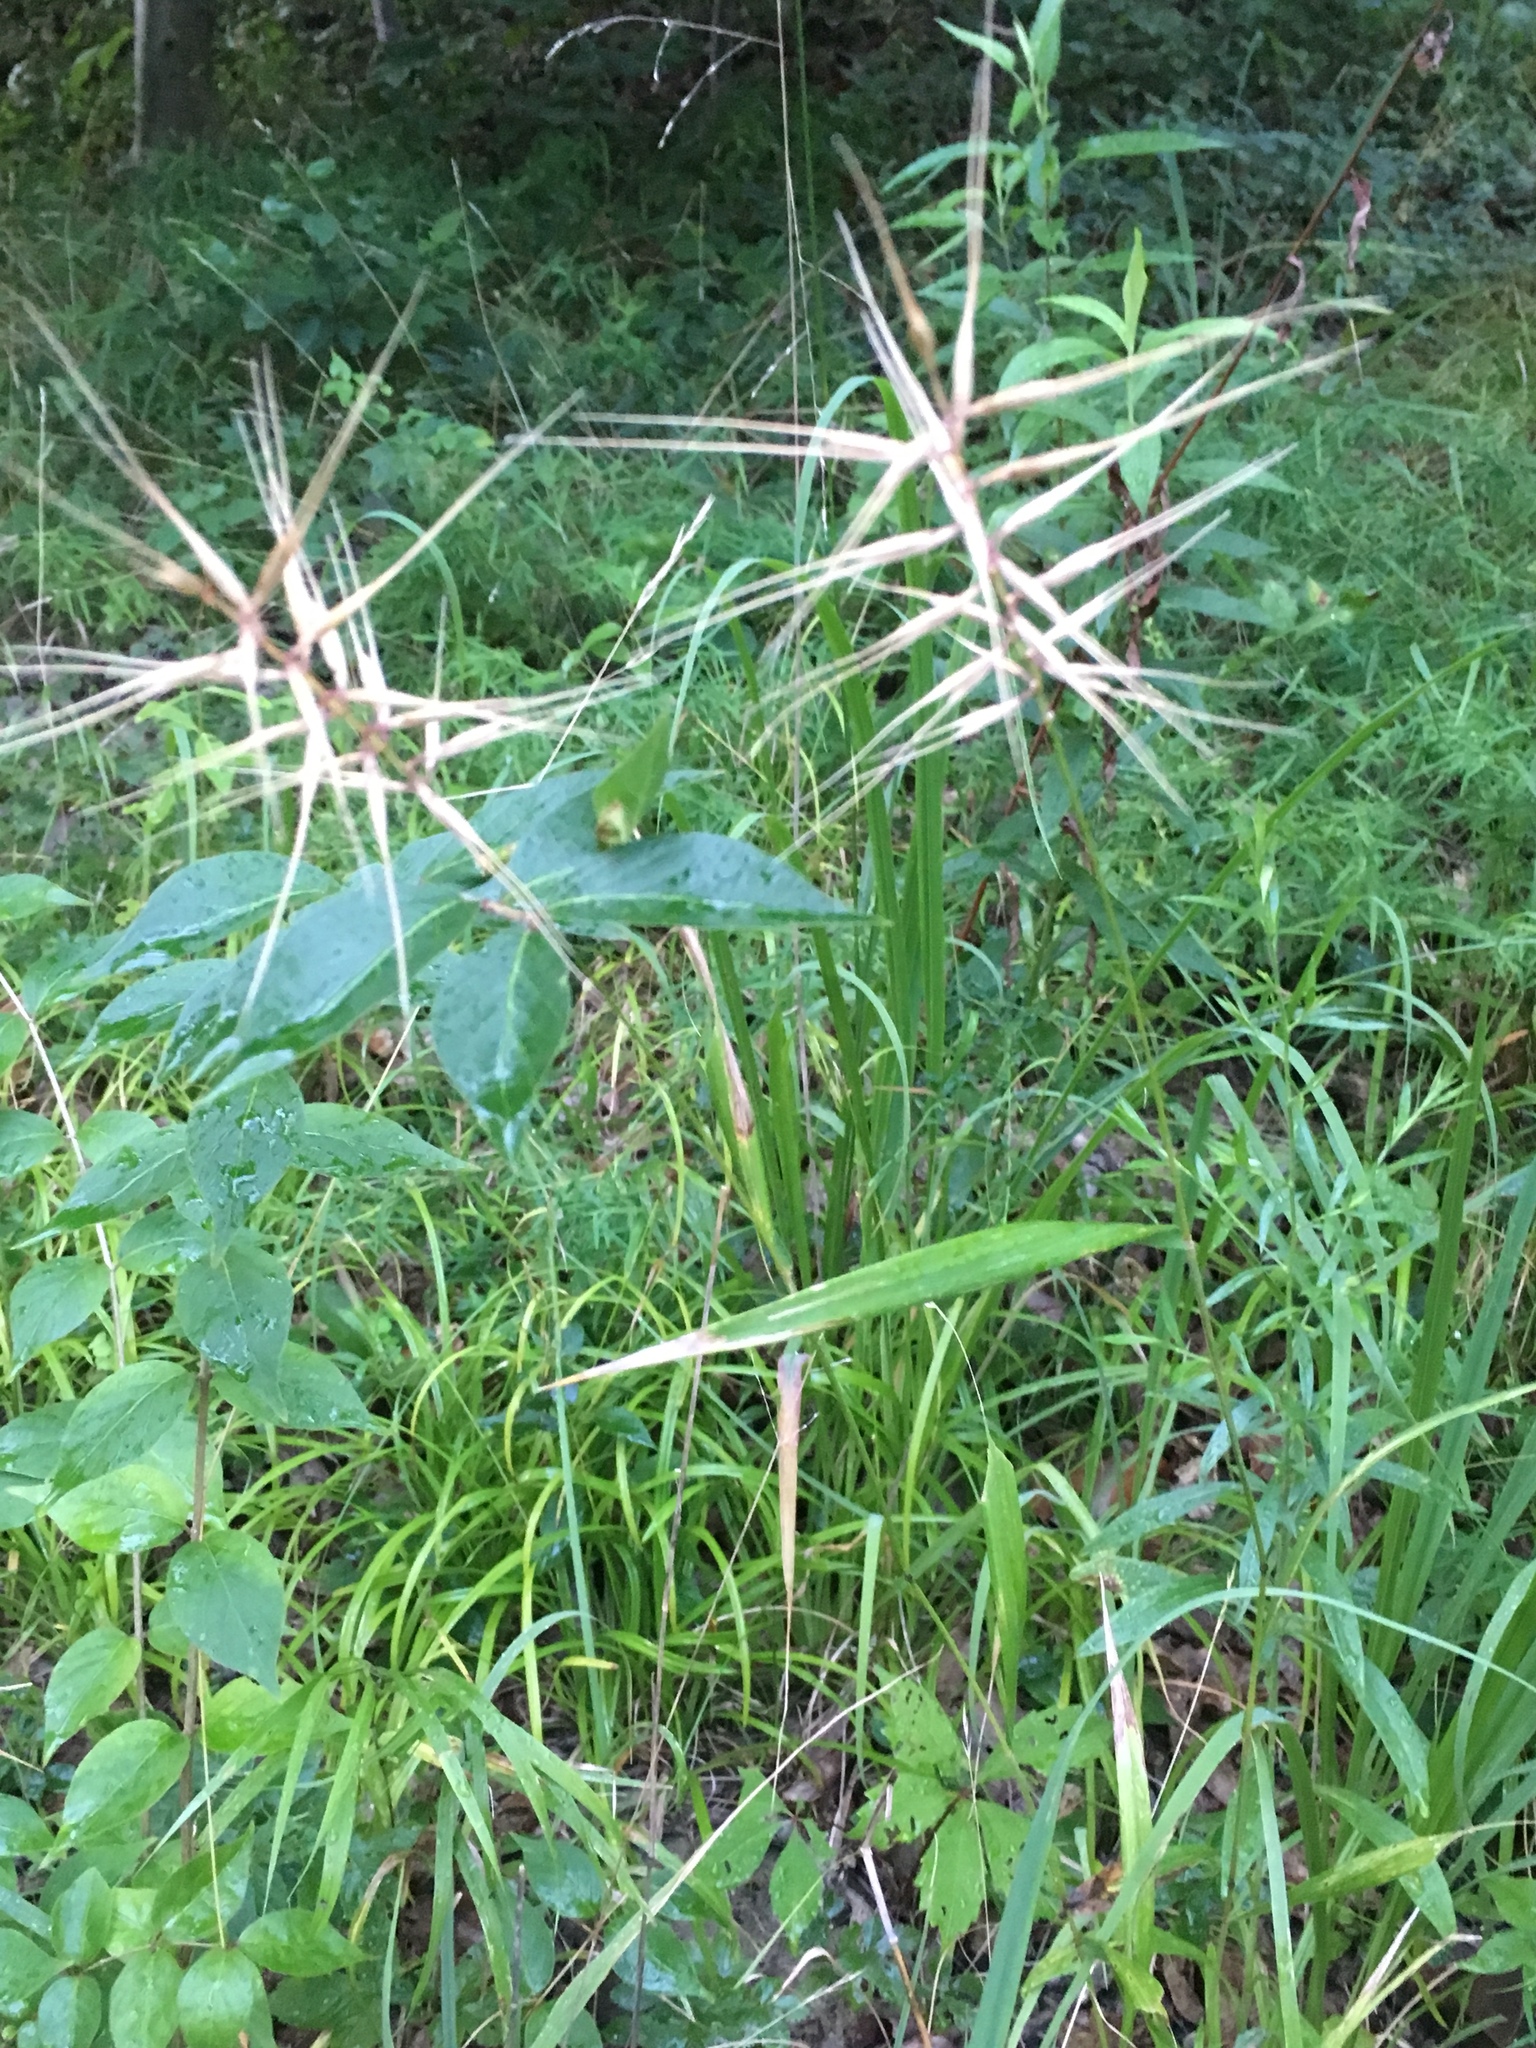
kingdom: Plantae
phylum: Tracheophyta
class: Liliopsida
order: Poales
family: Poaceae
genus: Elymus
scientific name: Elymus hystrix
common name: Bottlebrush grass
